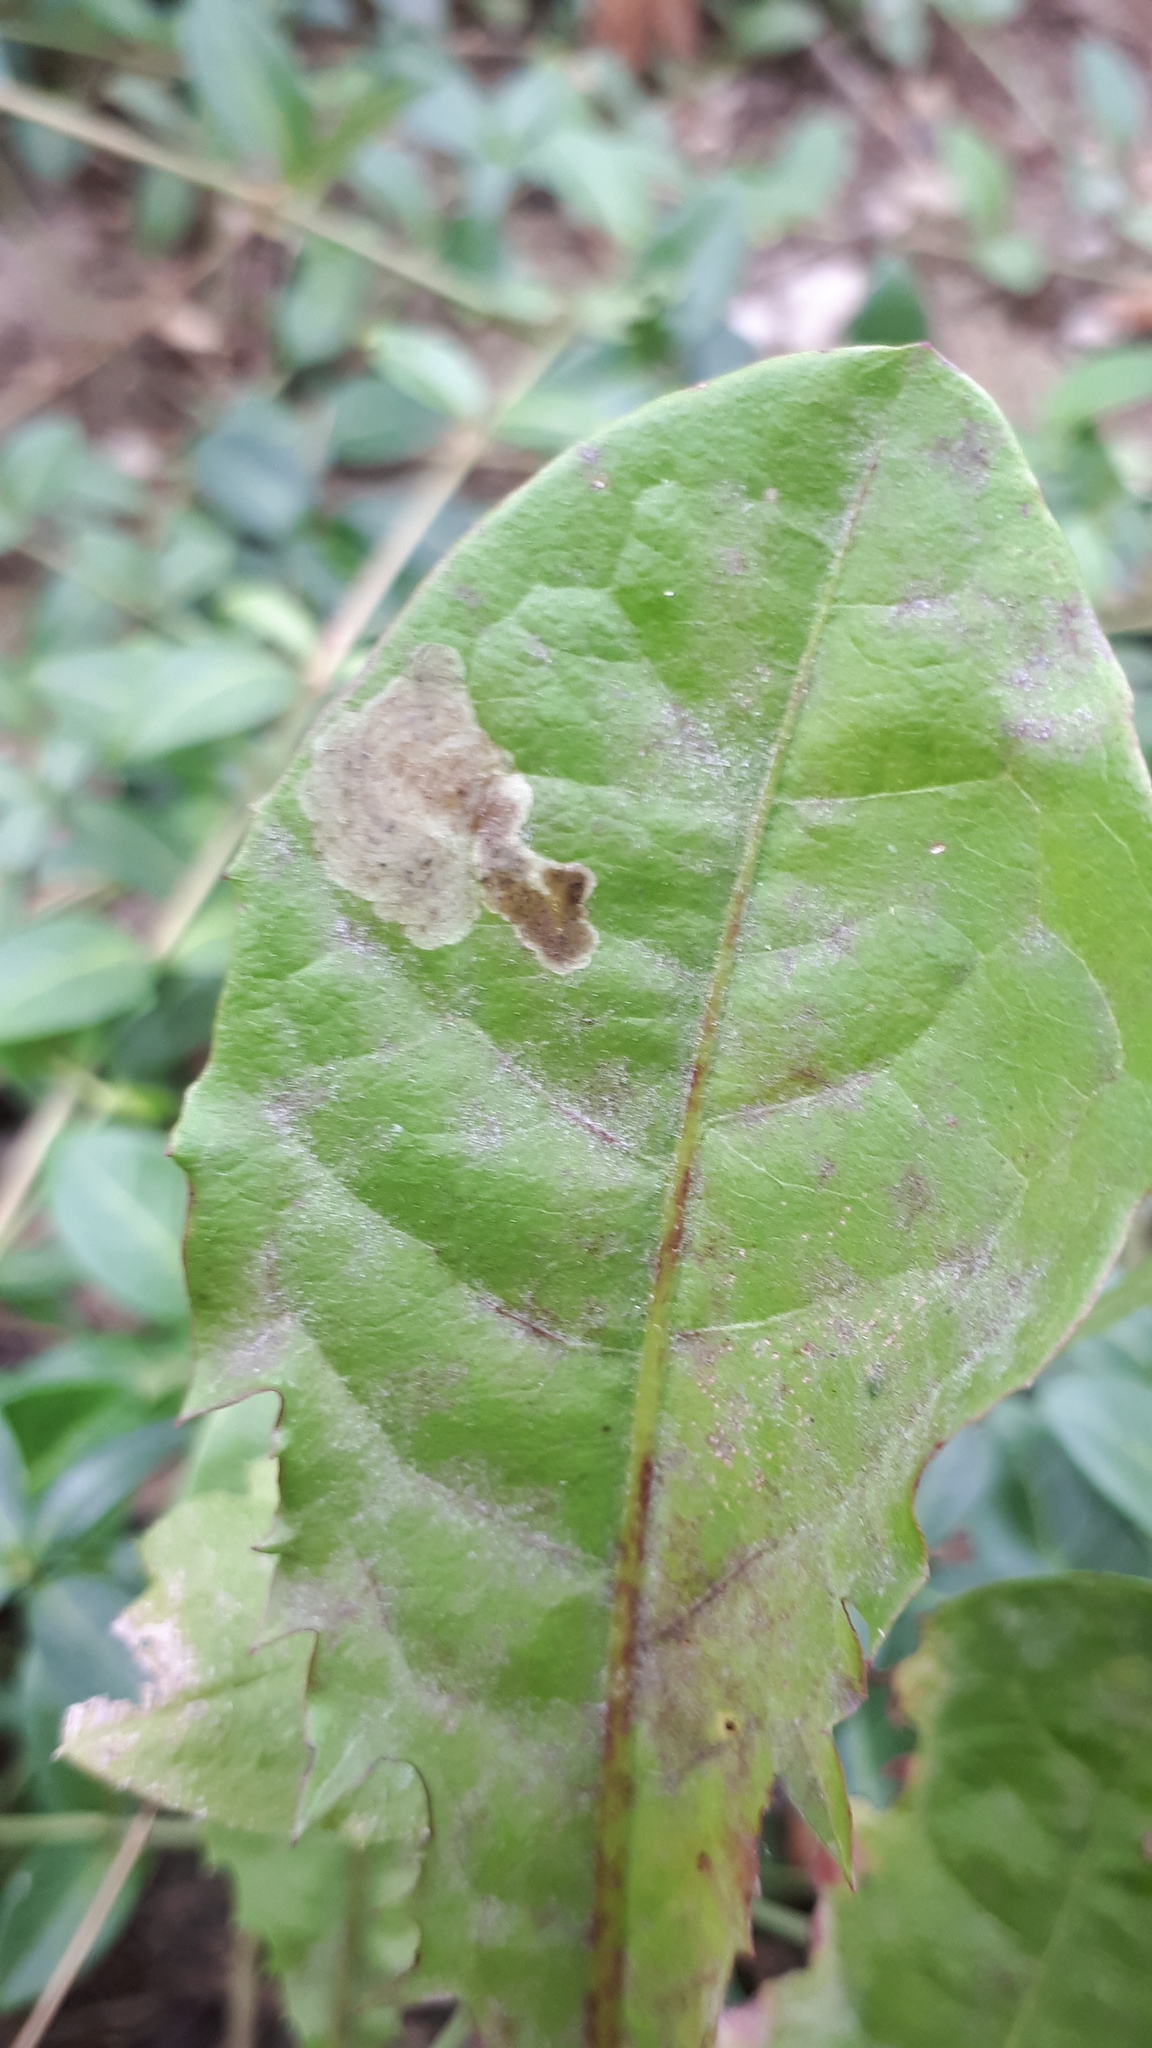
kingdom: Animalia
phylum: Arthropoda
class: Insecta
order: Diptera
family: Agromyzidae
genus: Liriomyza
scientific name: Liriomyza taraxaci
